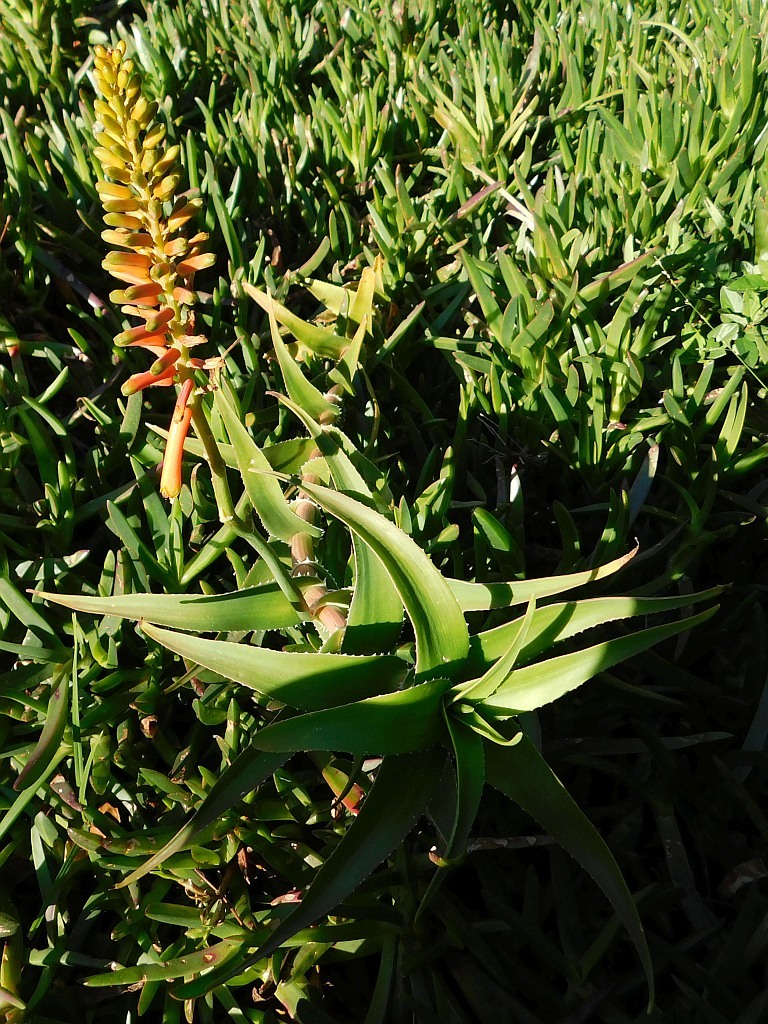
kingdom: Plantae
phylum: Tracheophyta
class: Liliopsida
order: Asparagales
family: Asphodelaceae
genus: Aloiampelos
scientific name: Aloiampelos ciliaris
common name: Climbing aloe
